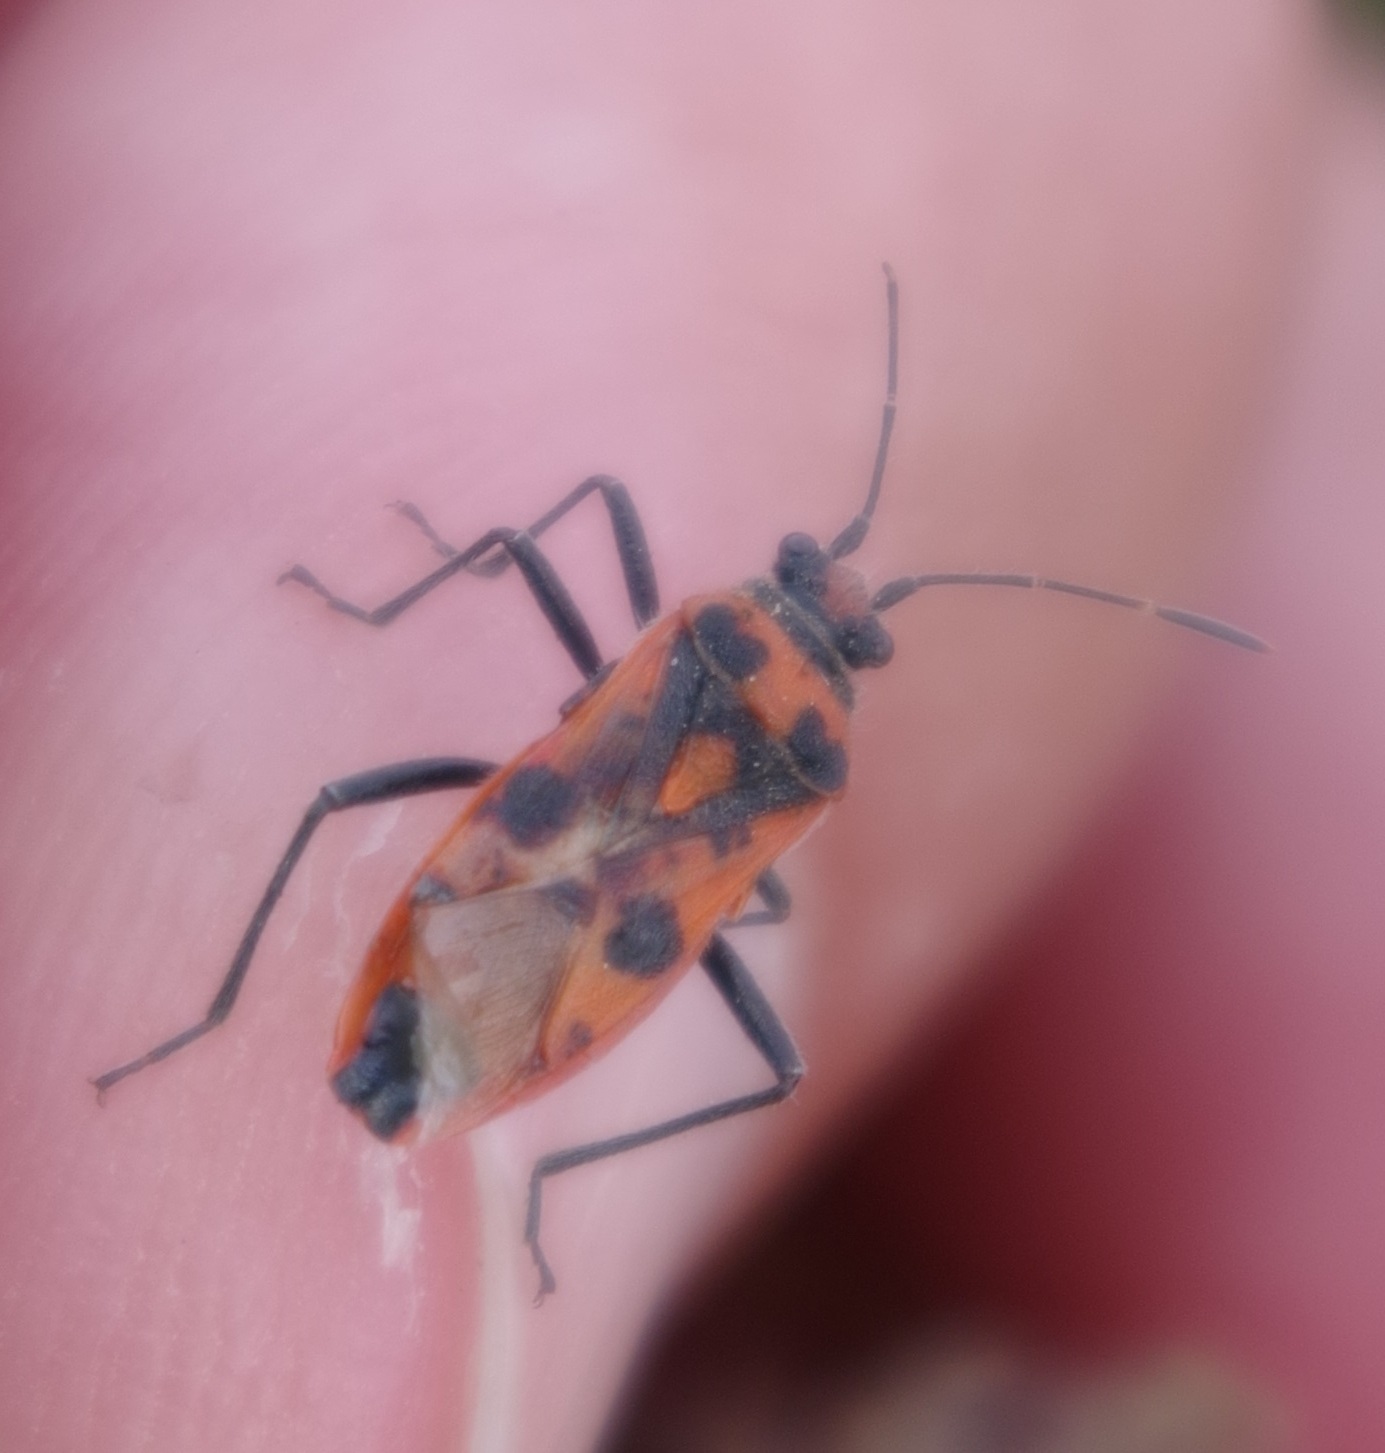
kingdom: Animalia
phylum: Arthropoda
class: Insecta
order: Hemiptera
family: Rhopalidae
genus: Corizus
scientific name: Corizus hyoscyami
